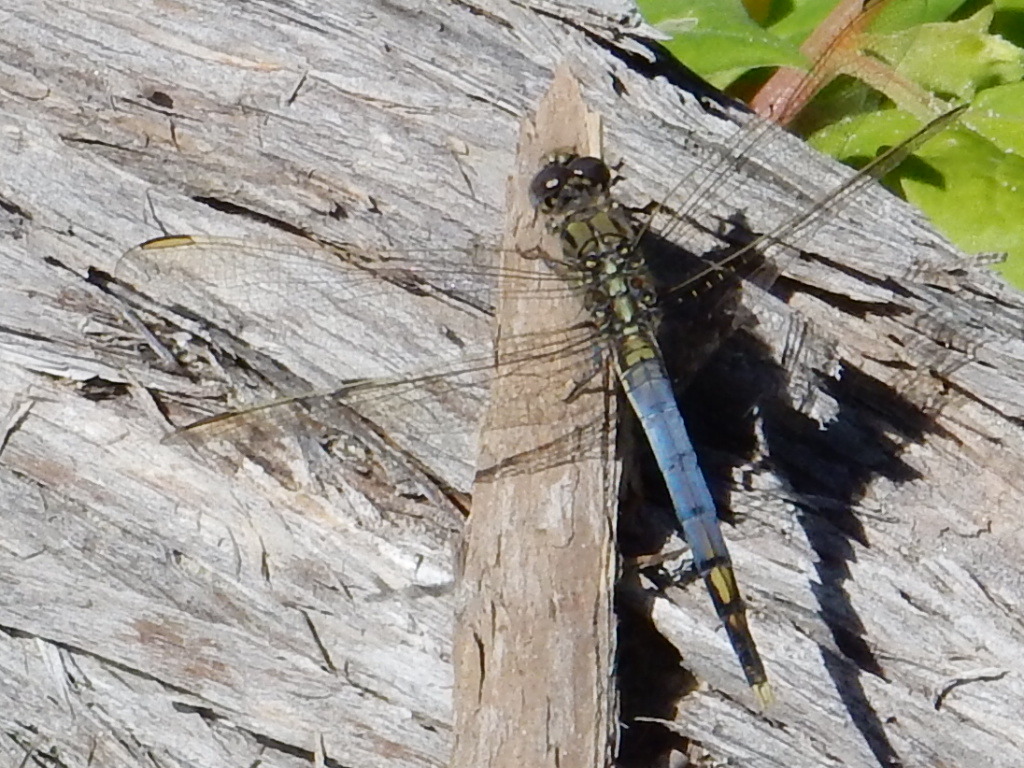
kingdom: Animalia
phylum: Arthropoda
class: Insecta
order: Odonata
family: Libellulidae
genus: Orthetrum
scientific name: Orthetrum caledonicum
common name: Blue skimmer
